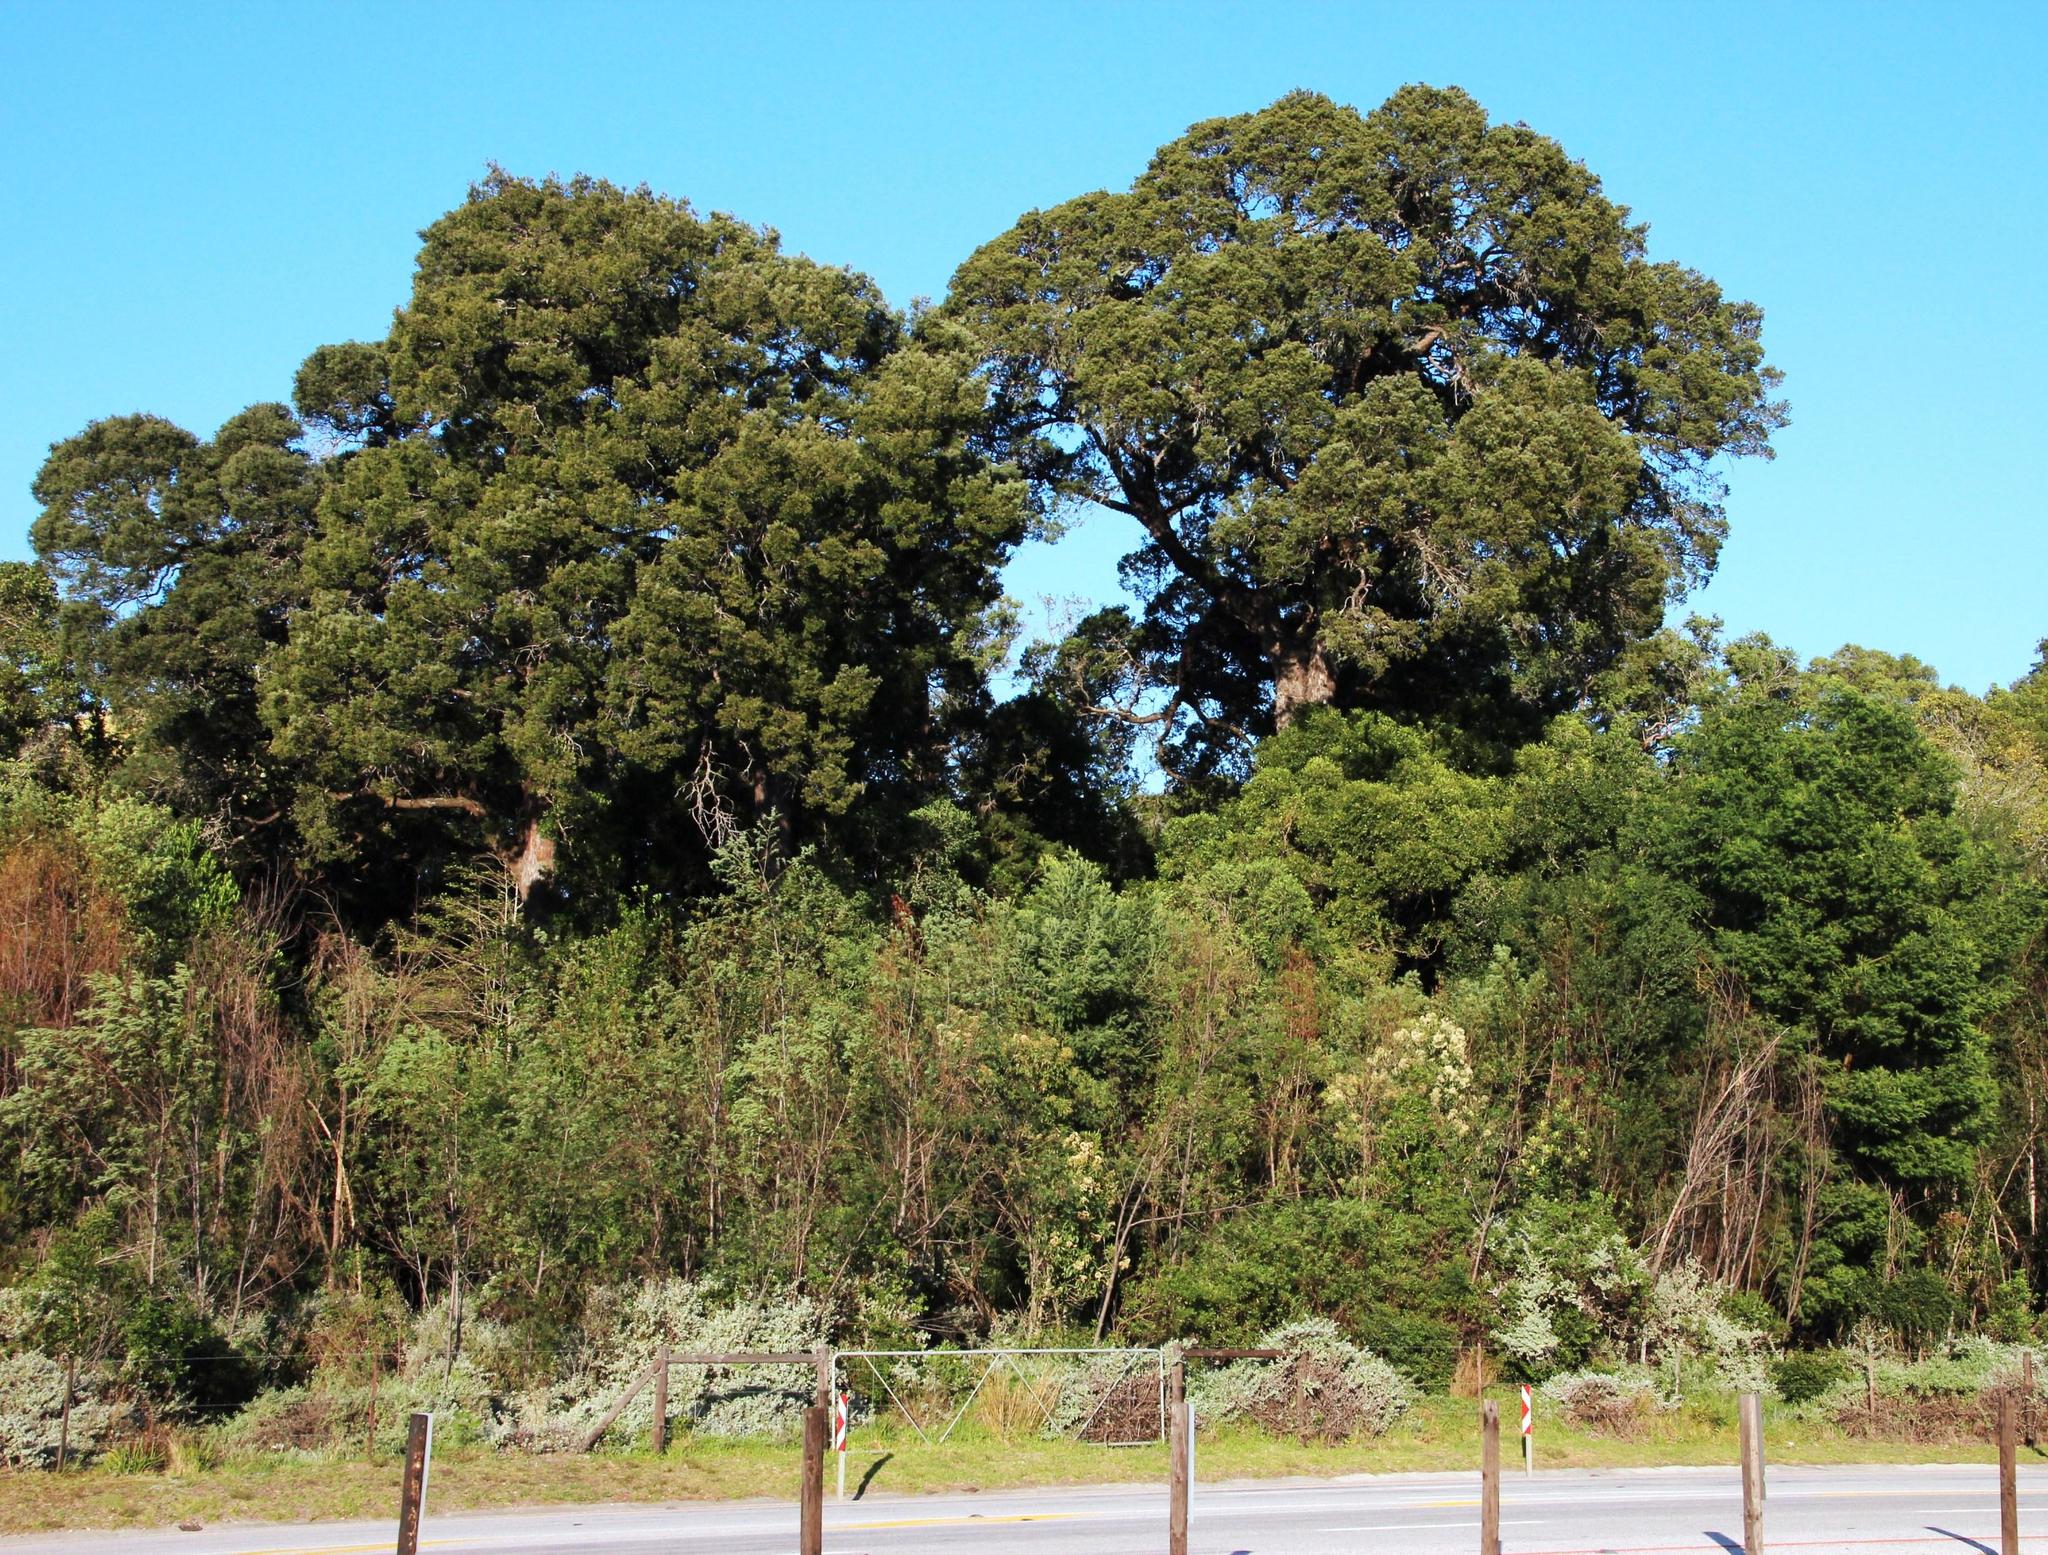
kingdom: Plantae
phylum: Tracheophyta
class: Pinopsida
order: Pinales
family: Podocarpaceae
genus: Afrocarpus
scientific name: Afrocarpus falcatus
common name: Bastard yellowwood
